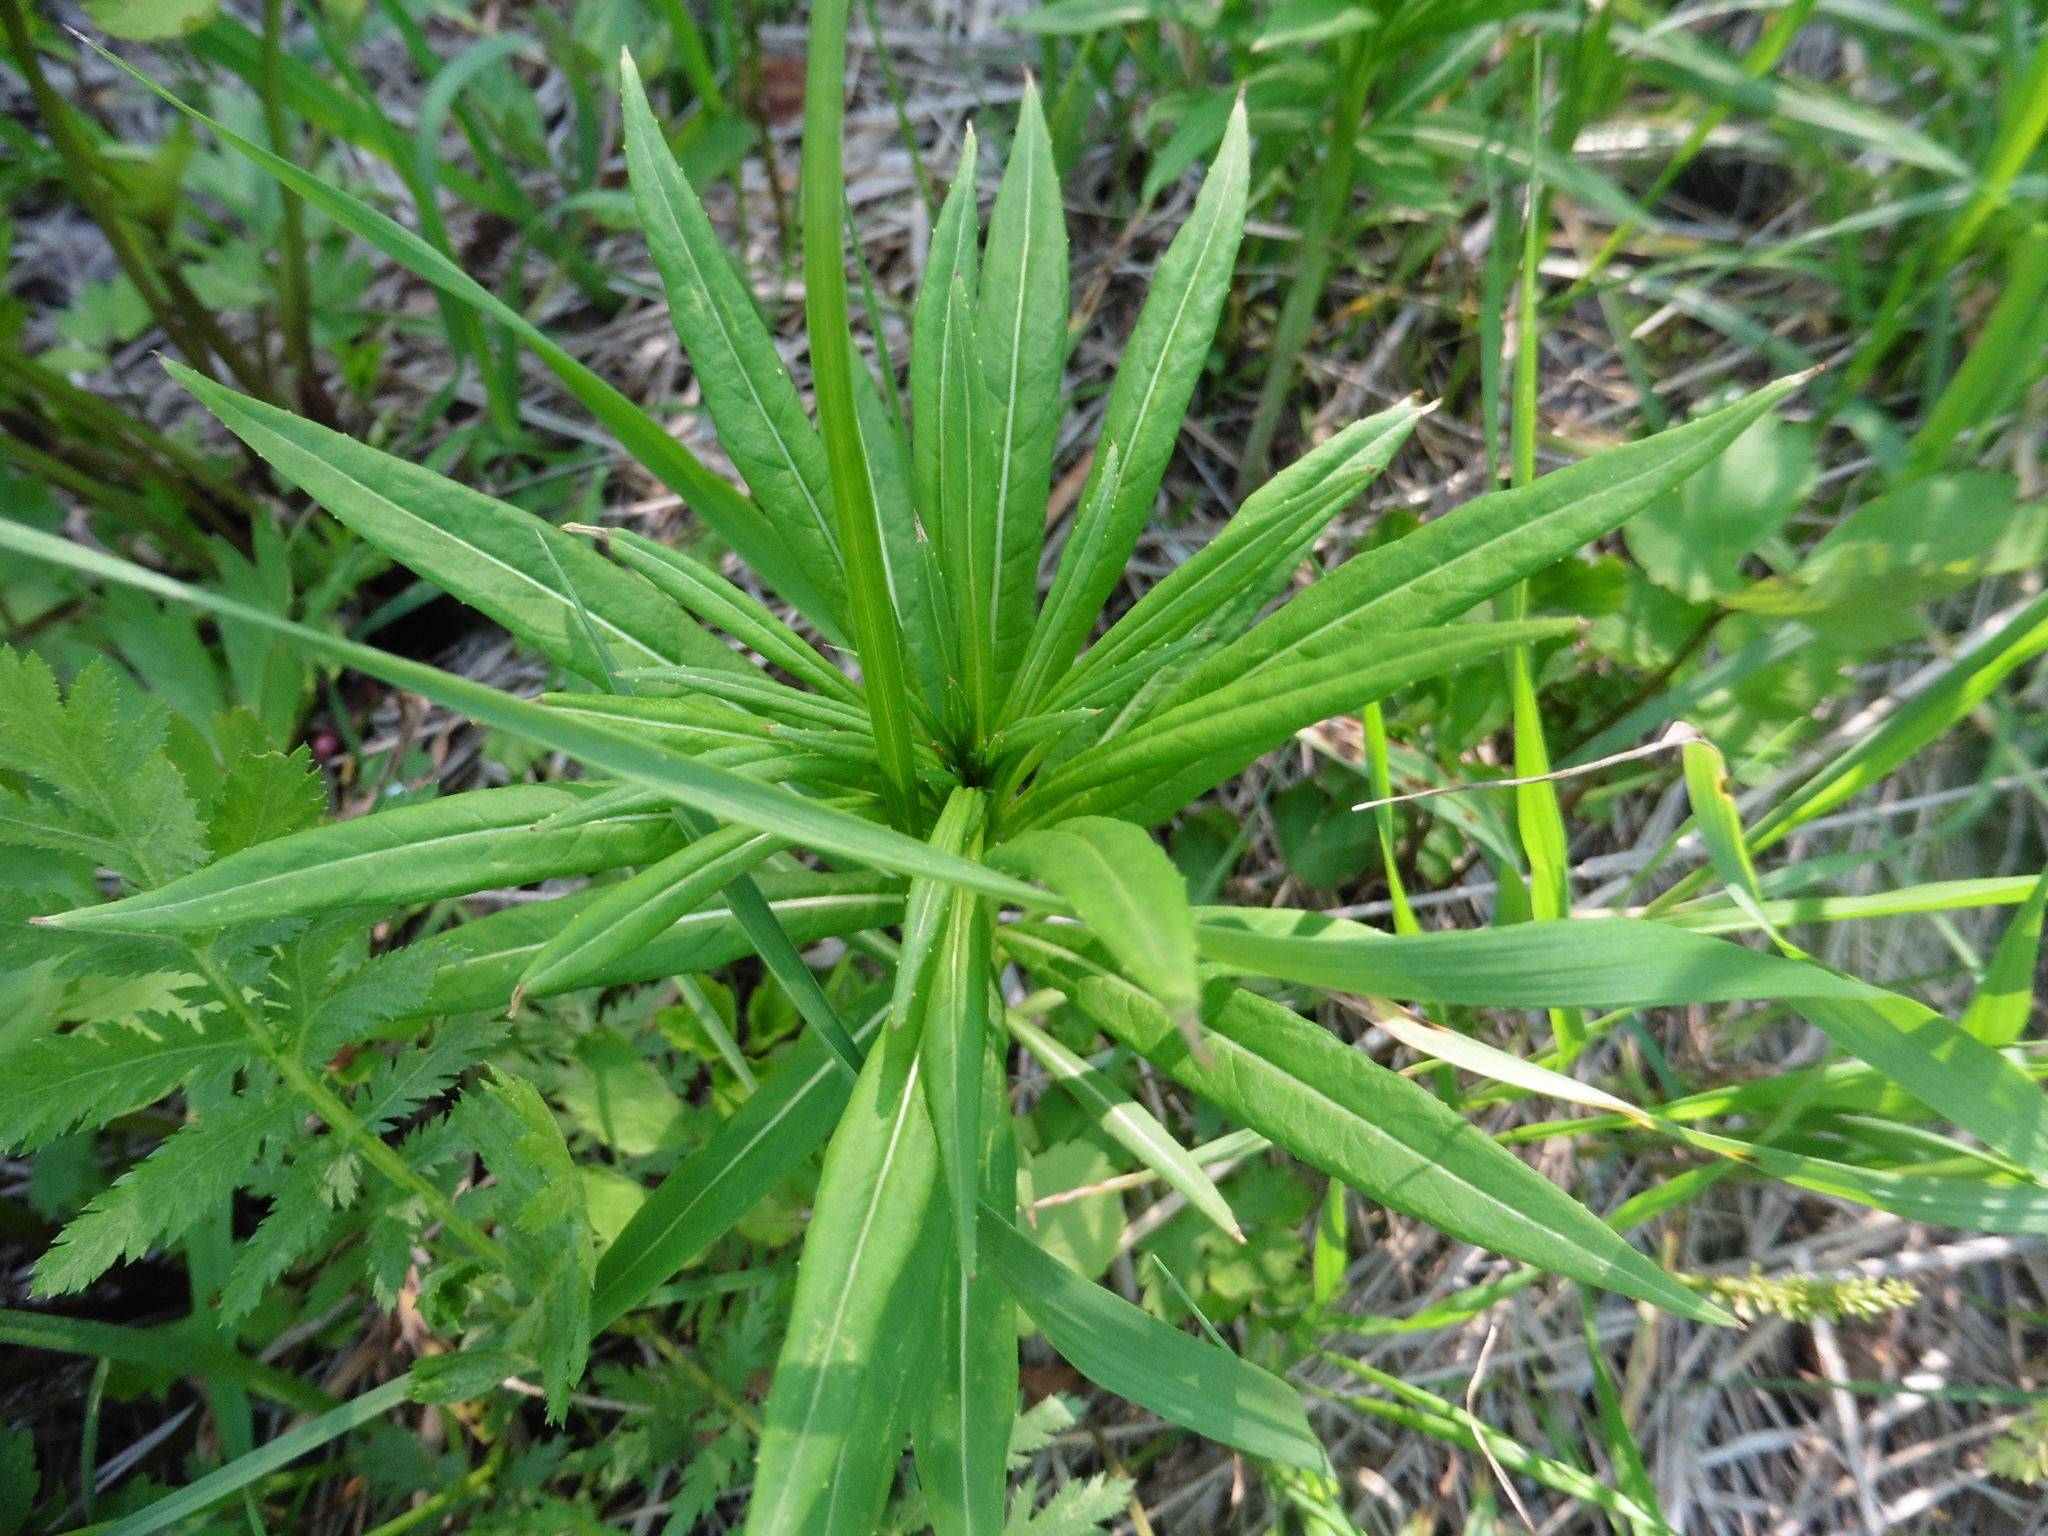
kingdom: Plantae
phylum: Tracheophyta
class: Magnoliopsida
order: Myrtales
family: Onagraceae
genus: Chamaenerion
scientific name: Chamaenerion angustifolium
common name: Fireweed
